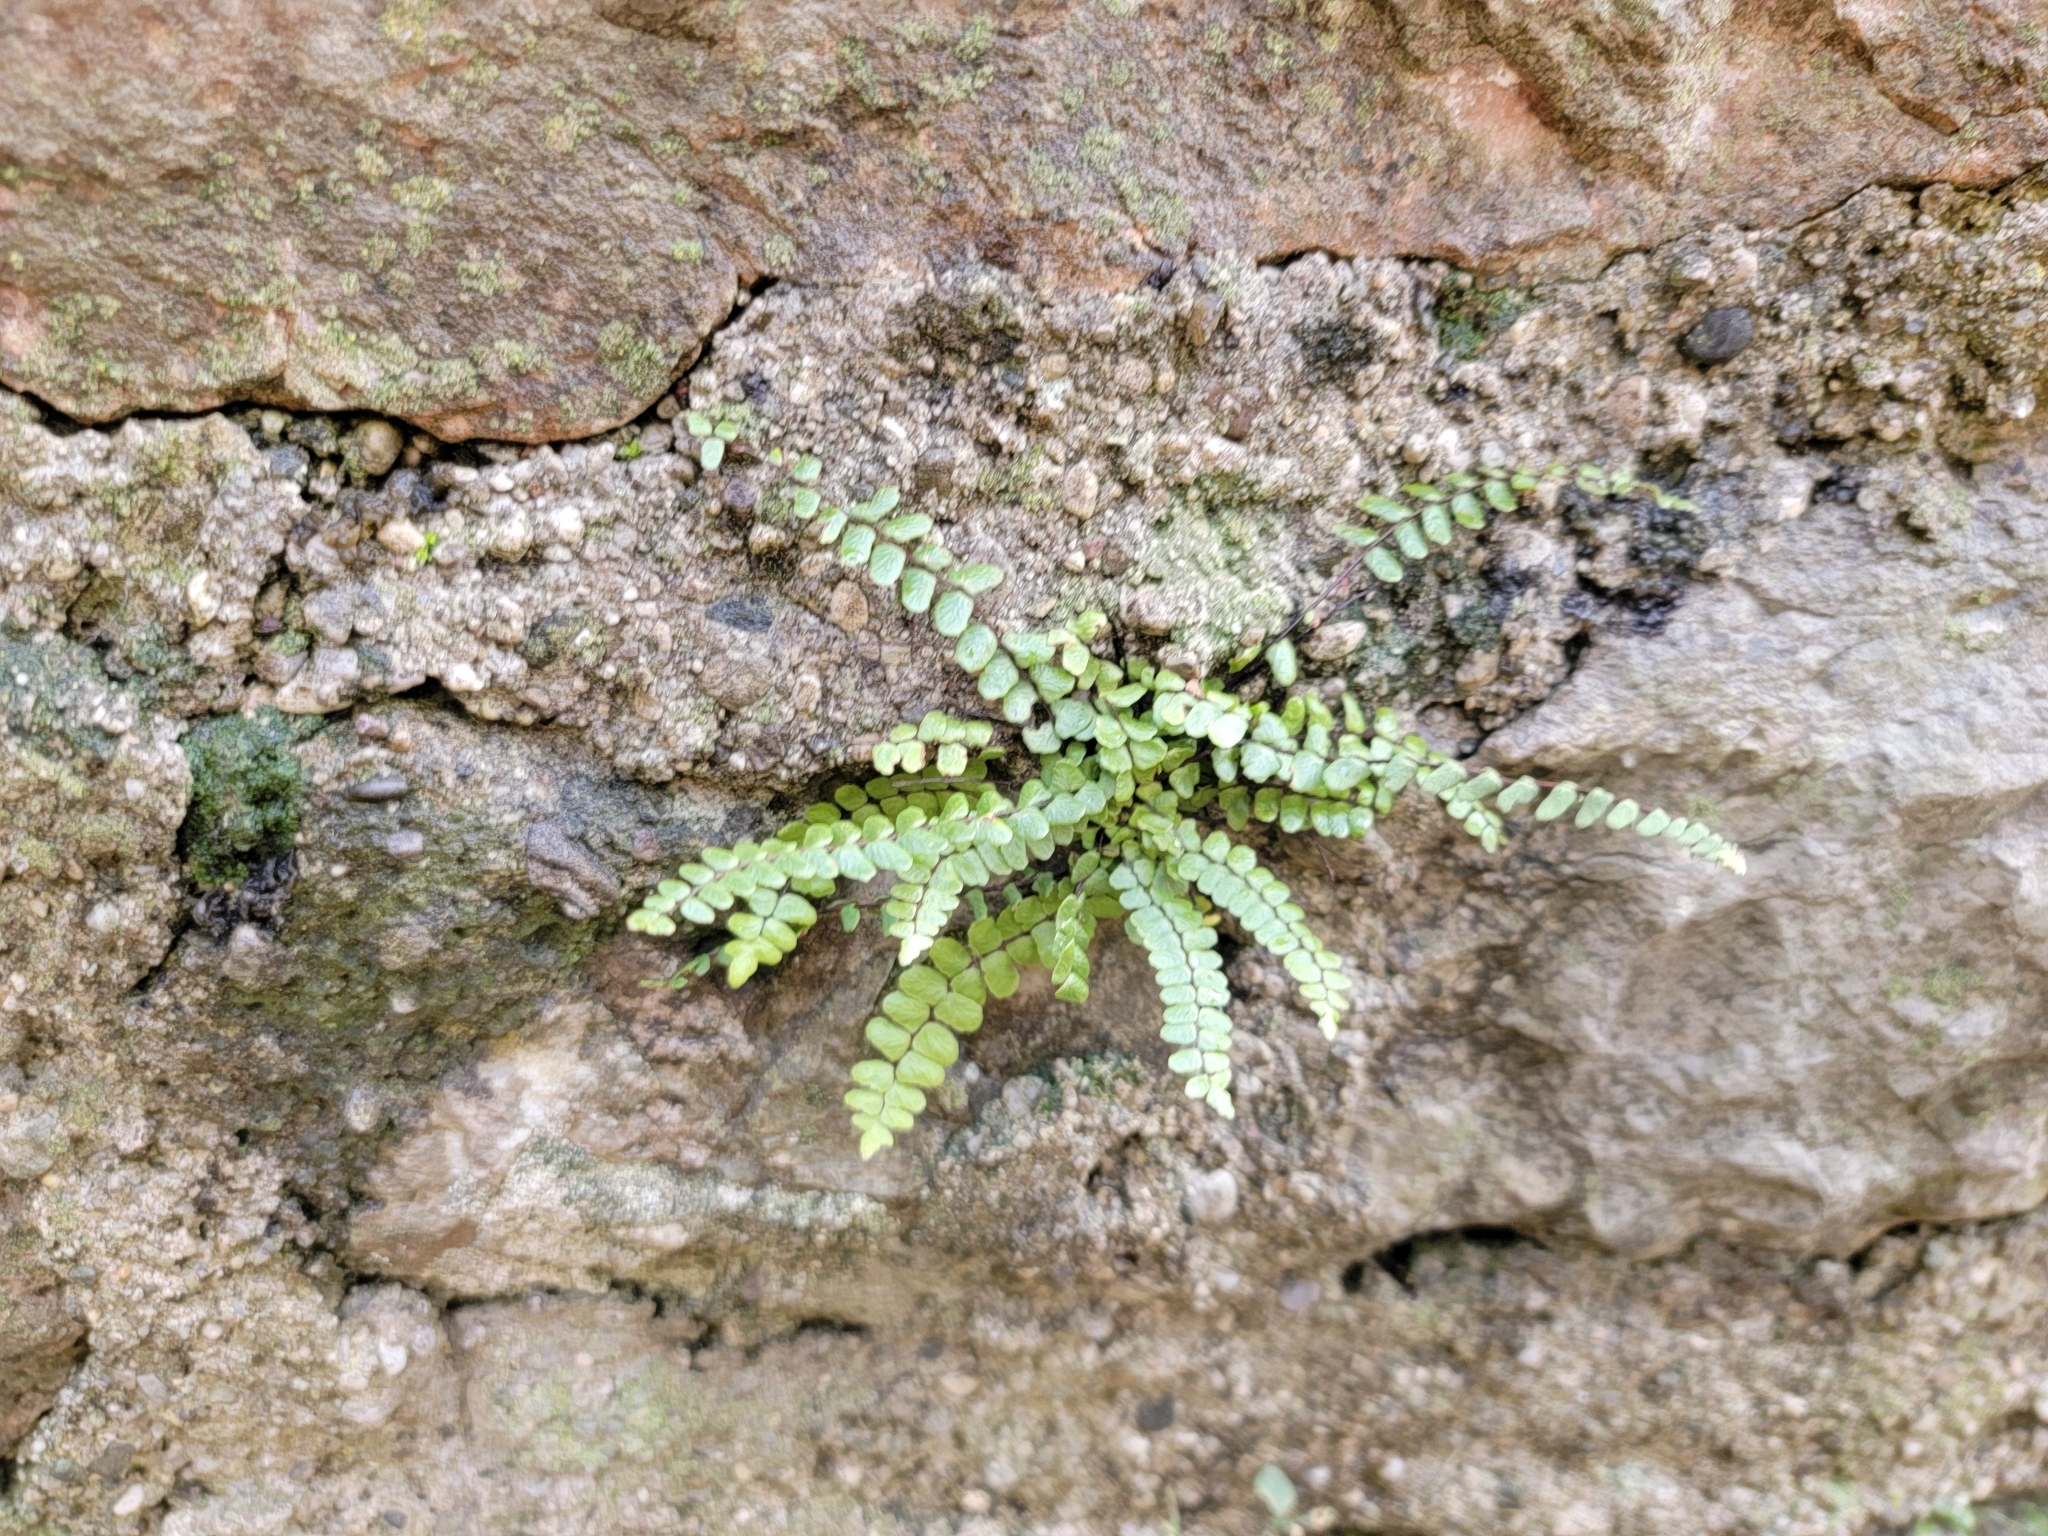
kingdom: Plantae
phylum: Tracheophyta
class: Polypodiopsida
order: Polypodiales
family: Aspleniaceae
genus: Asplenium
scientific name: Asplenium trichomanes
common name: Maidenhair spleenwort
